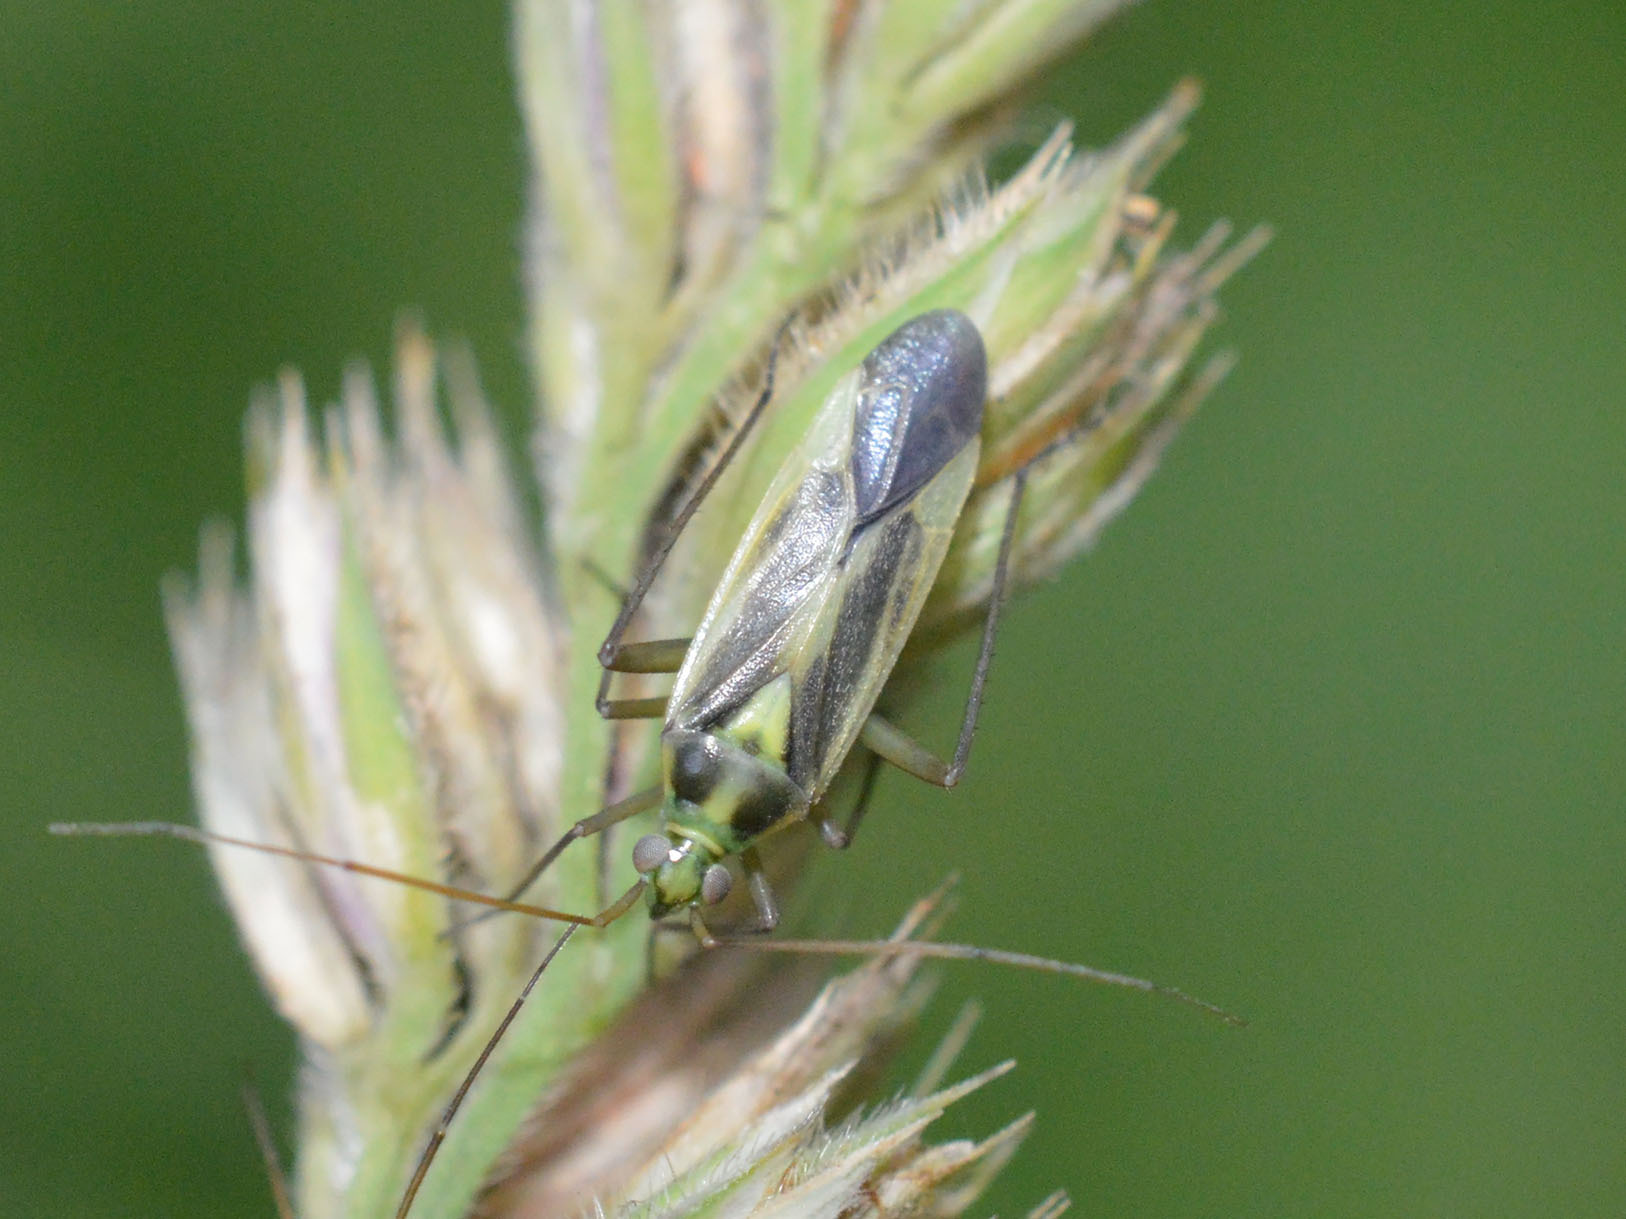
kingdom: Animalia
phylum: Arthropoda
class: Insecta
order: Hemiptera
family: Miridae
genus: Stenotus
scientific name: Stenotus binotatus
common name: Plant bug
